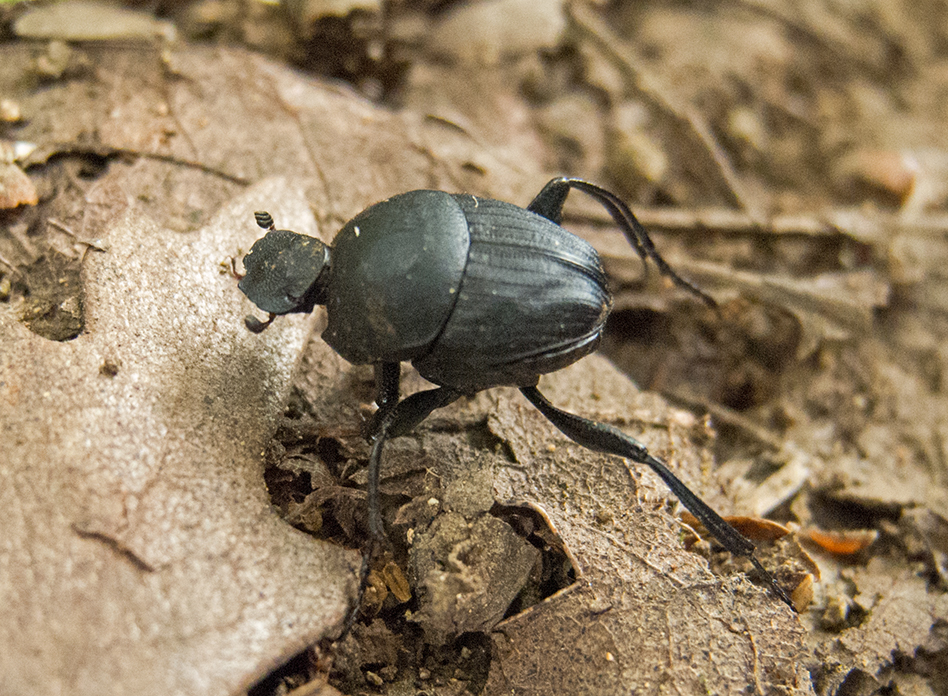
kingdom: Animalia
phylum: Arthropoda
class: Insecta
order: Coleoptera
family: Scarabaeidae
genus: Sisyphus
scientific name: Sisyphus schaefferi
